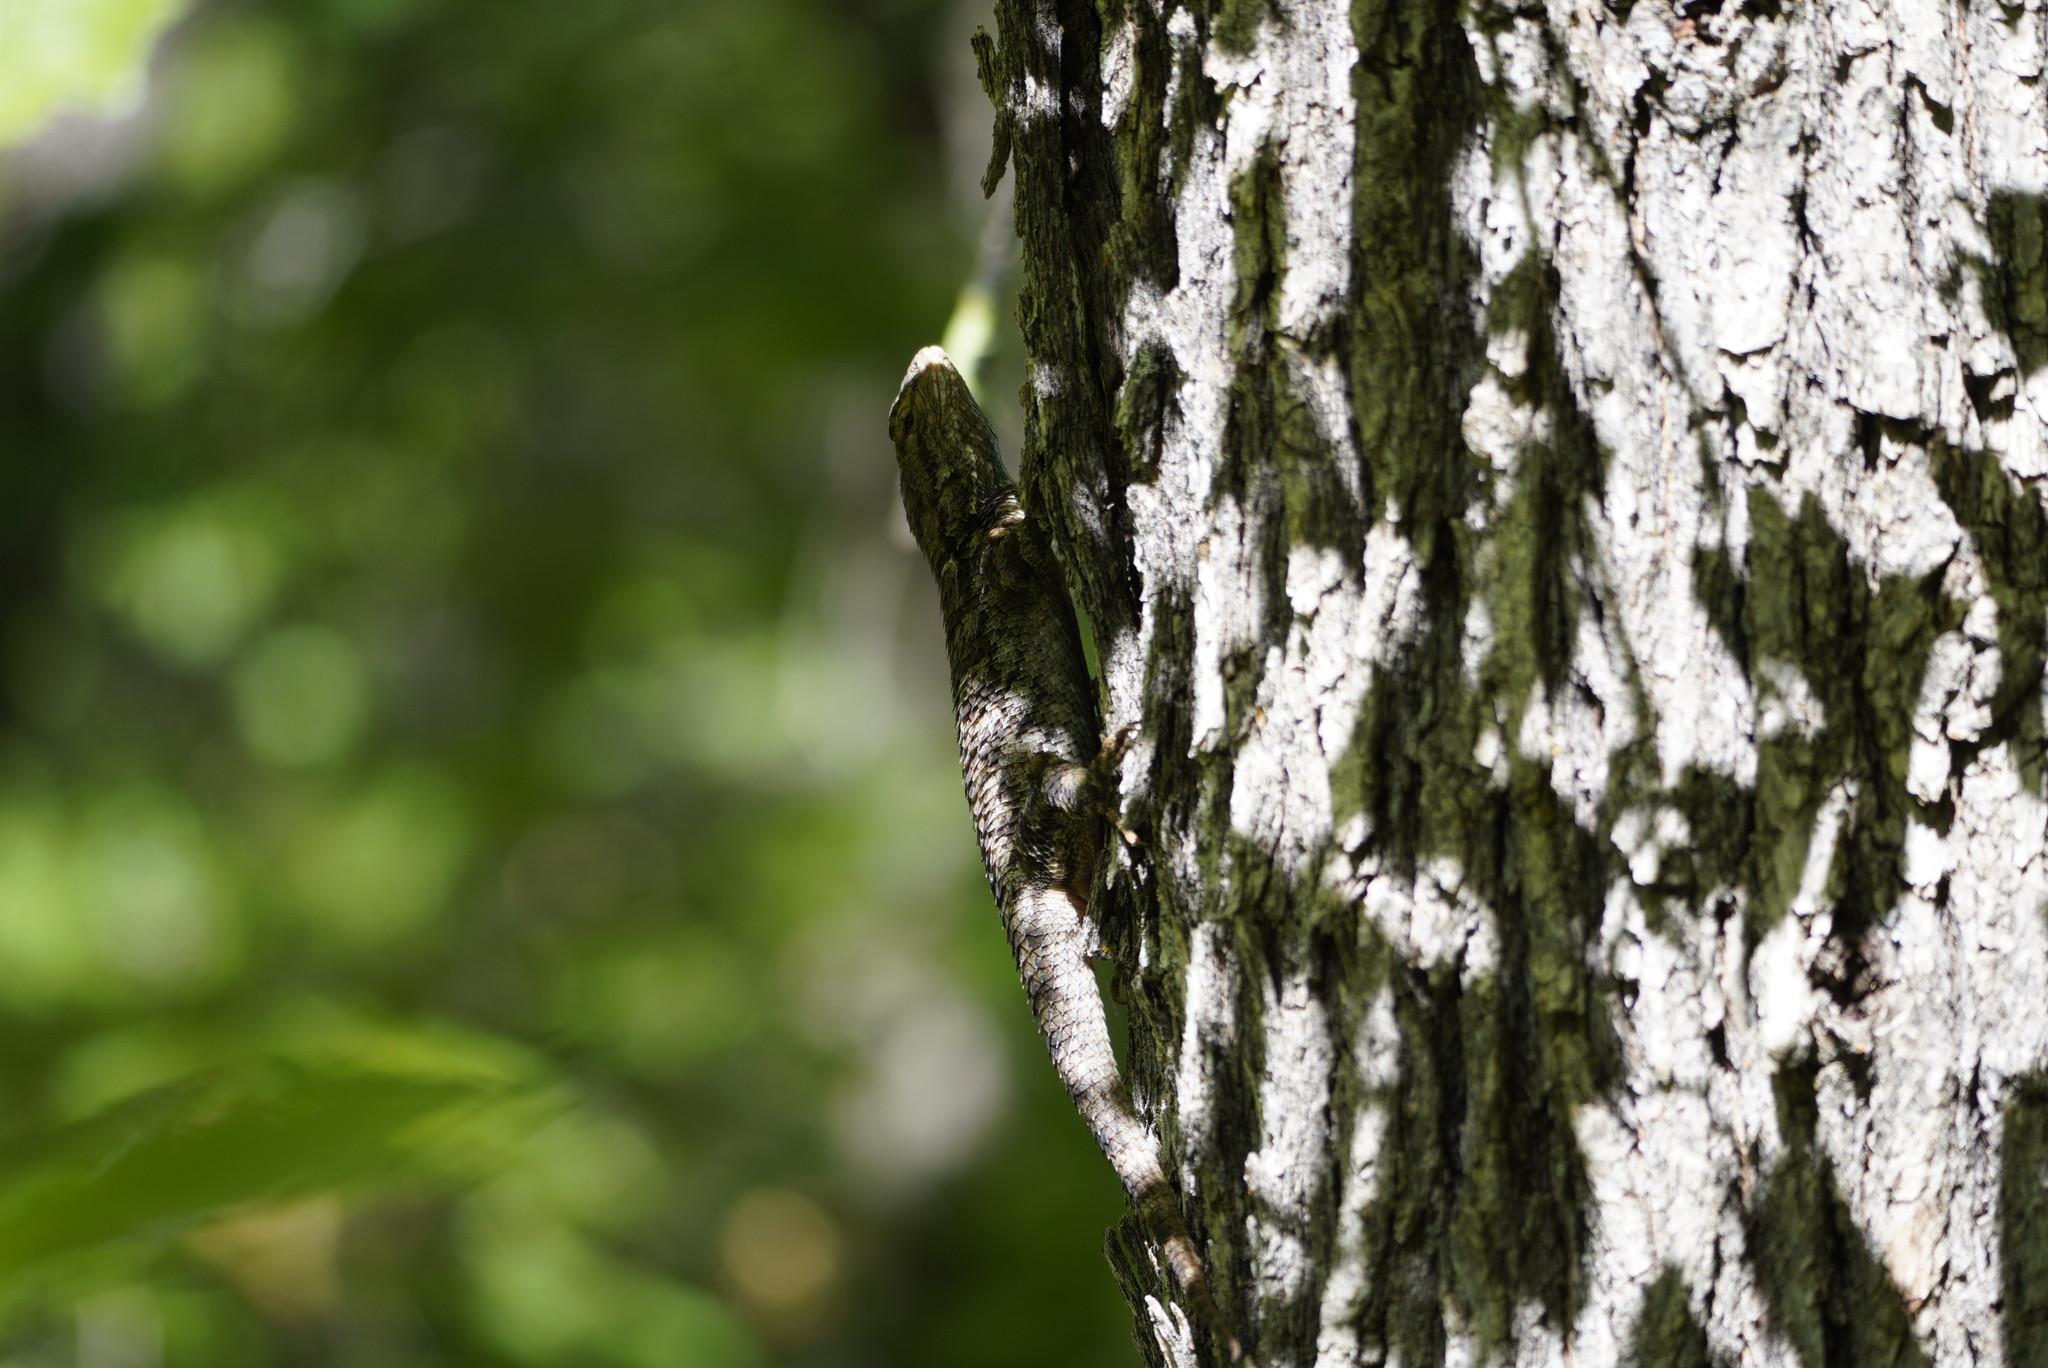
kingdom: Animalia
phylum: Chordata
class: Squamata
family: Phrynosomatidae
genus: Sceloporus
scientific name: Sceloporus clarkii
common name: Clark's spiny lizard
